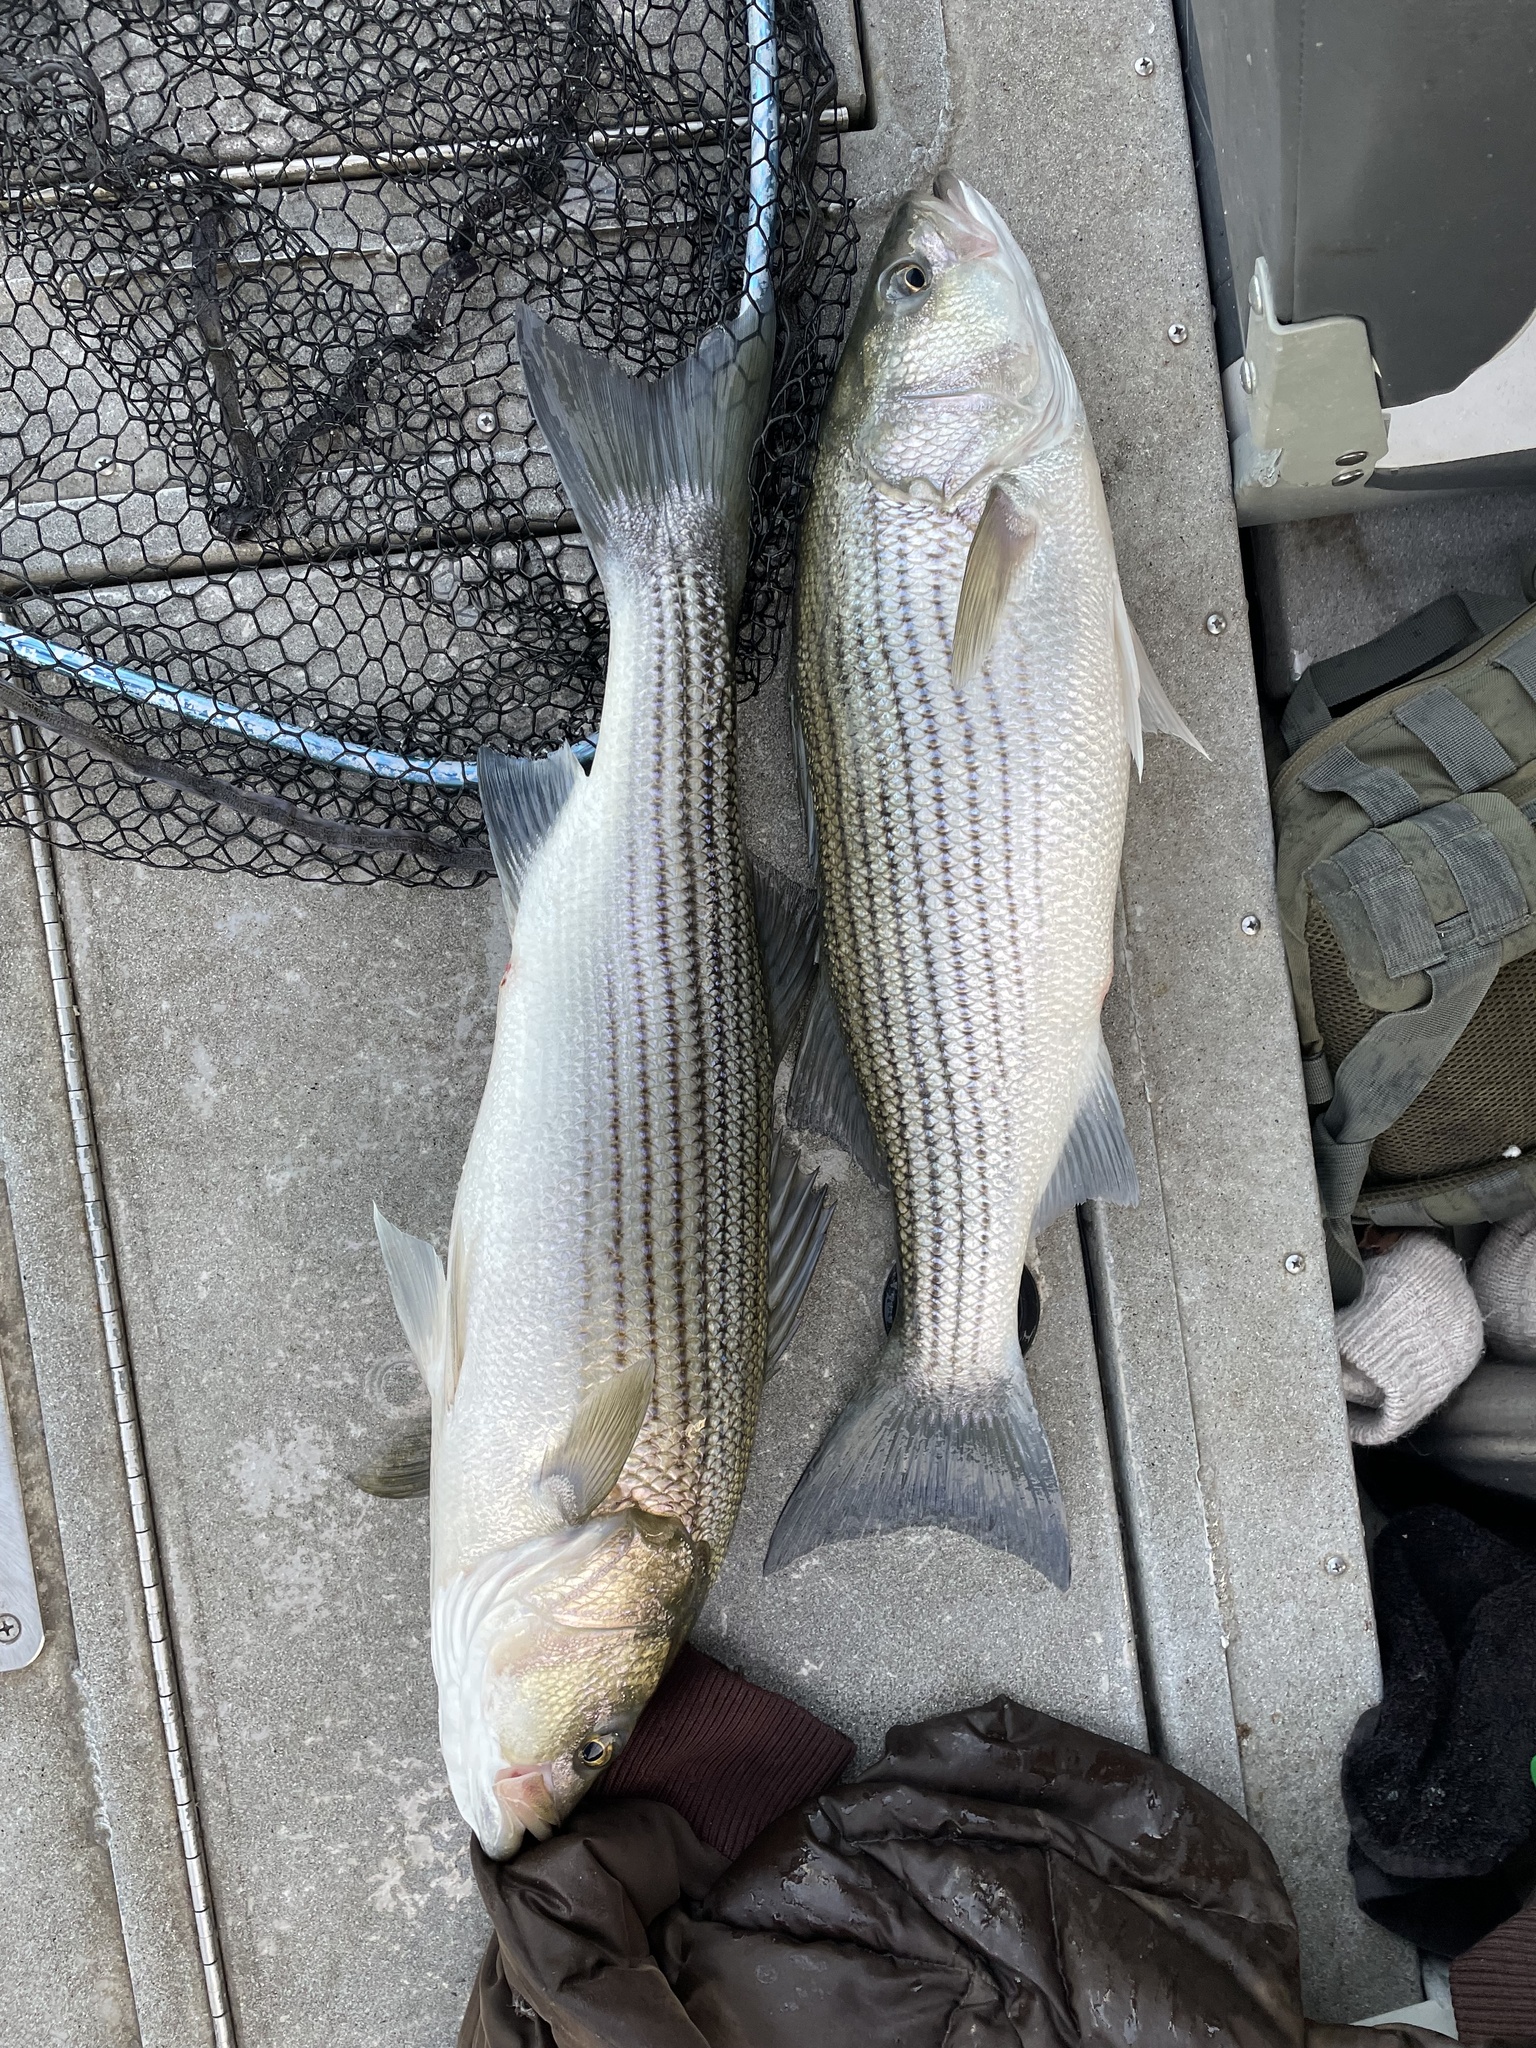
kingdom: Animalia
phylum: Chordata
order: Perciformes
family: Moronidae
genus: Morone
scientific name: Morone saxatilis
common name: Striped bass
